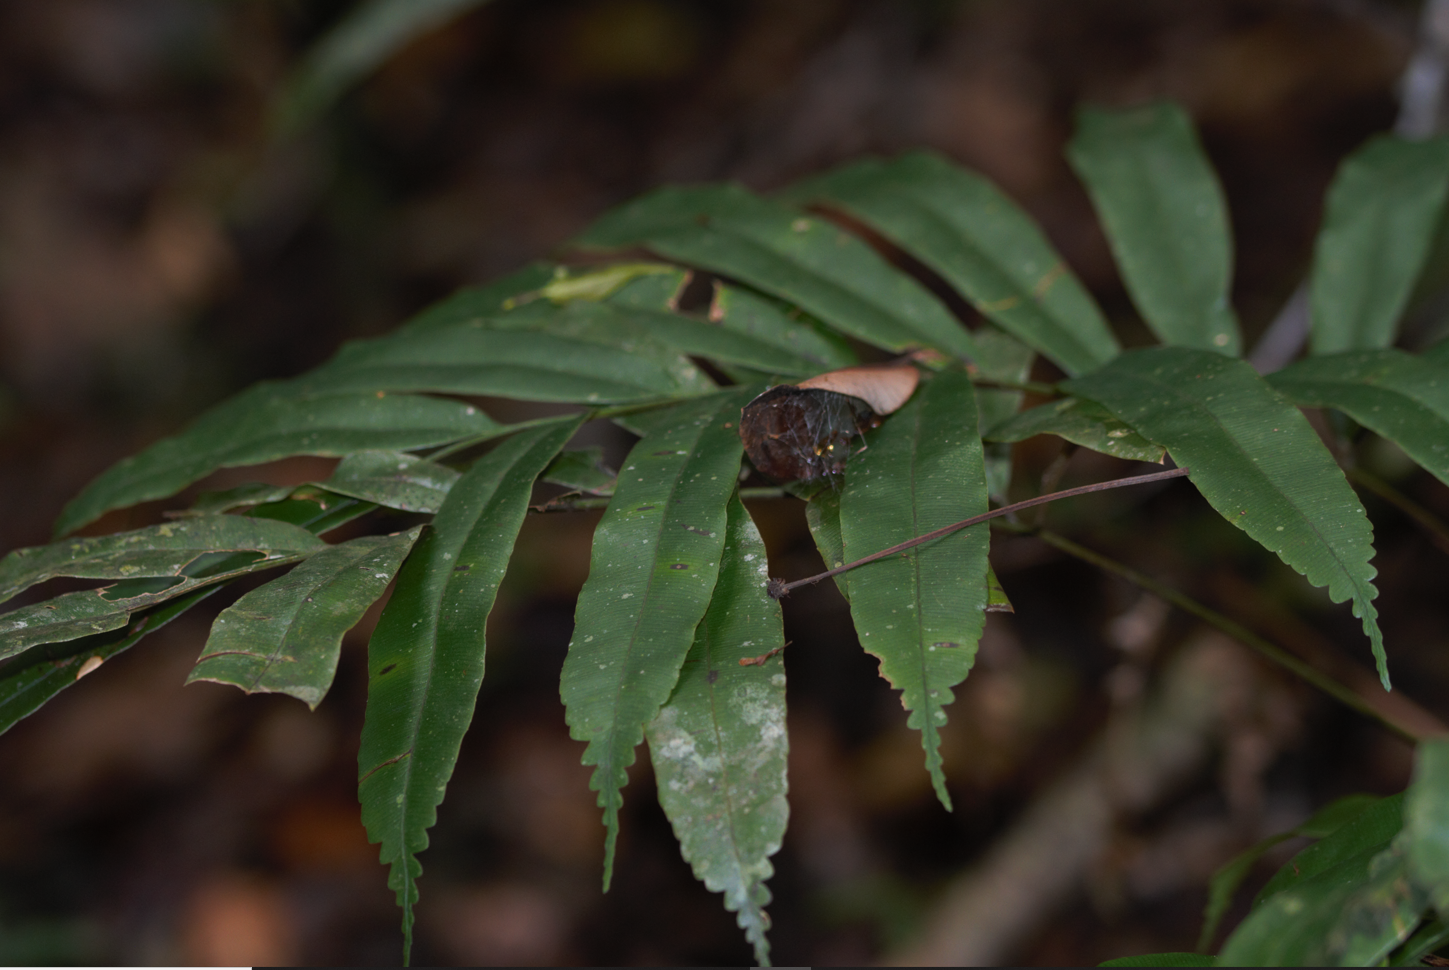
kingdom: Plantae
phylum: Tracheophyta
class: Polypodiopsida
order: Cyatheales
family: Metaxyaceae
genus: Metaxya
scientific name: Metaxya scalaris
